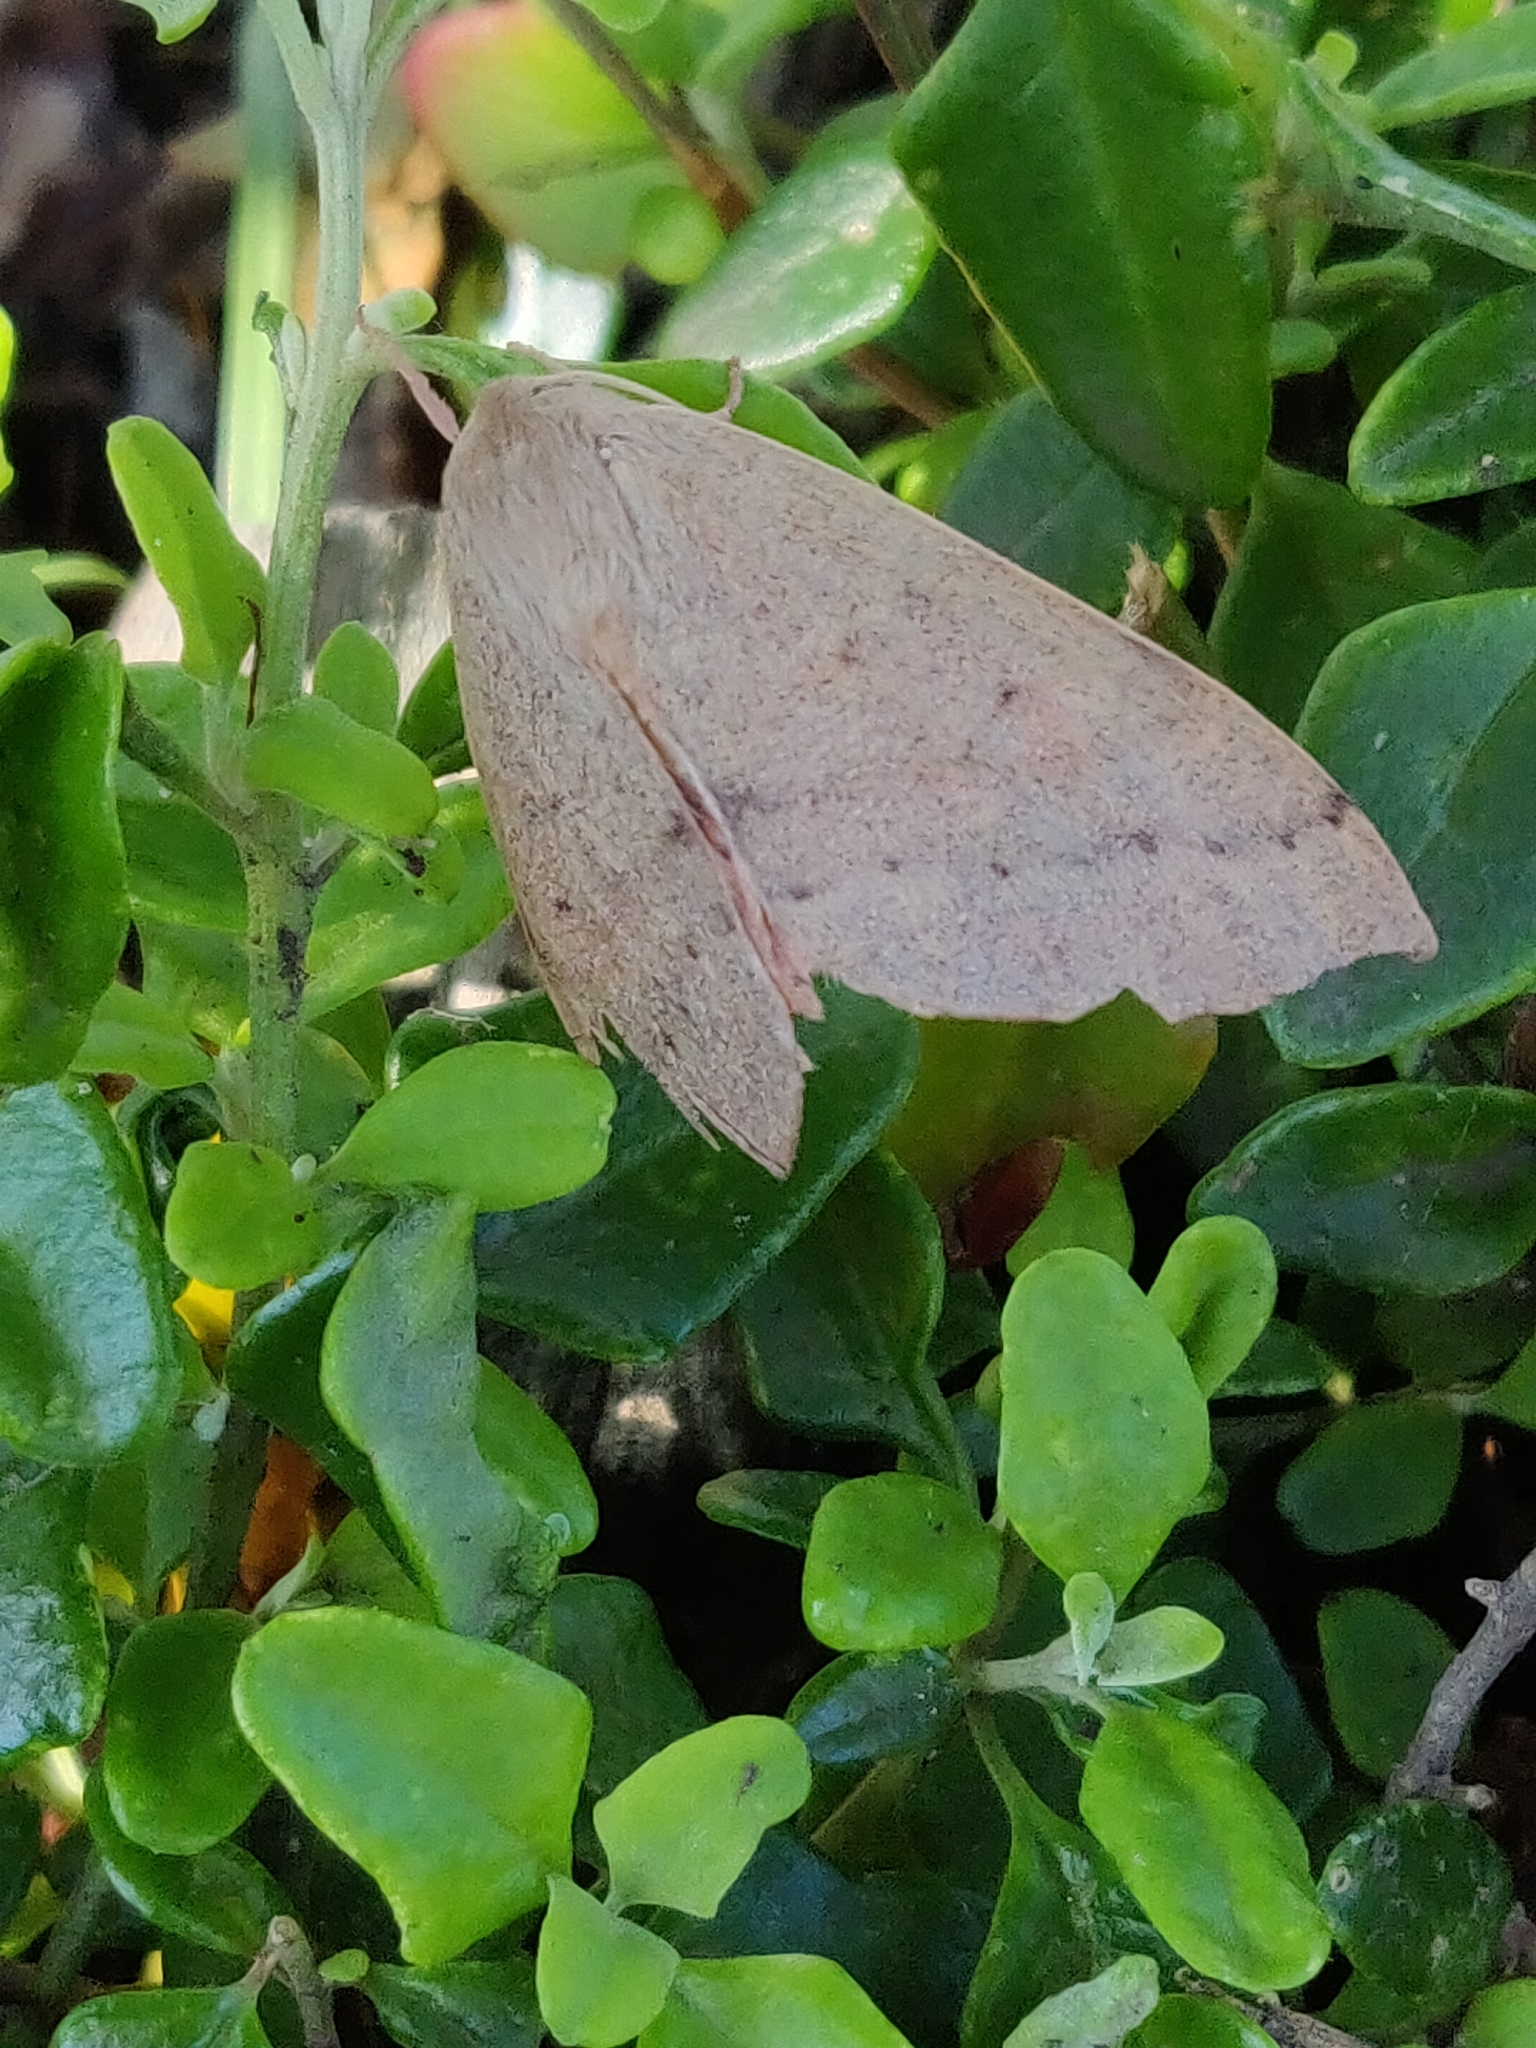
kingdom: Animalia
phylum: Arthropoda
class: Insecta
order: Lepidoptera
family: Geometridae
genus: Arhodia
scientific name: Arhodia lasiocamparia
